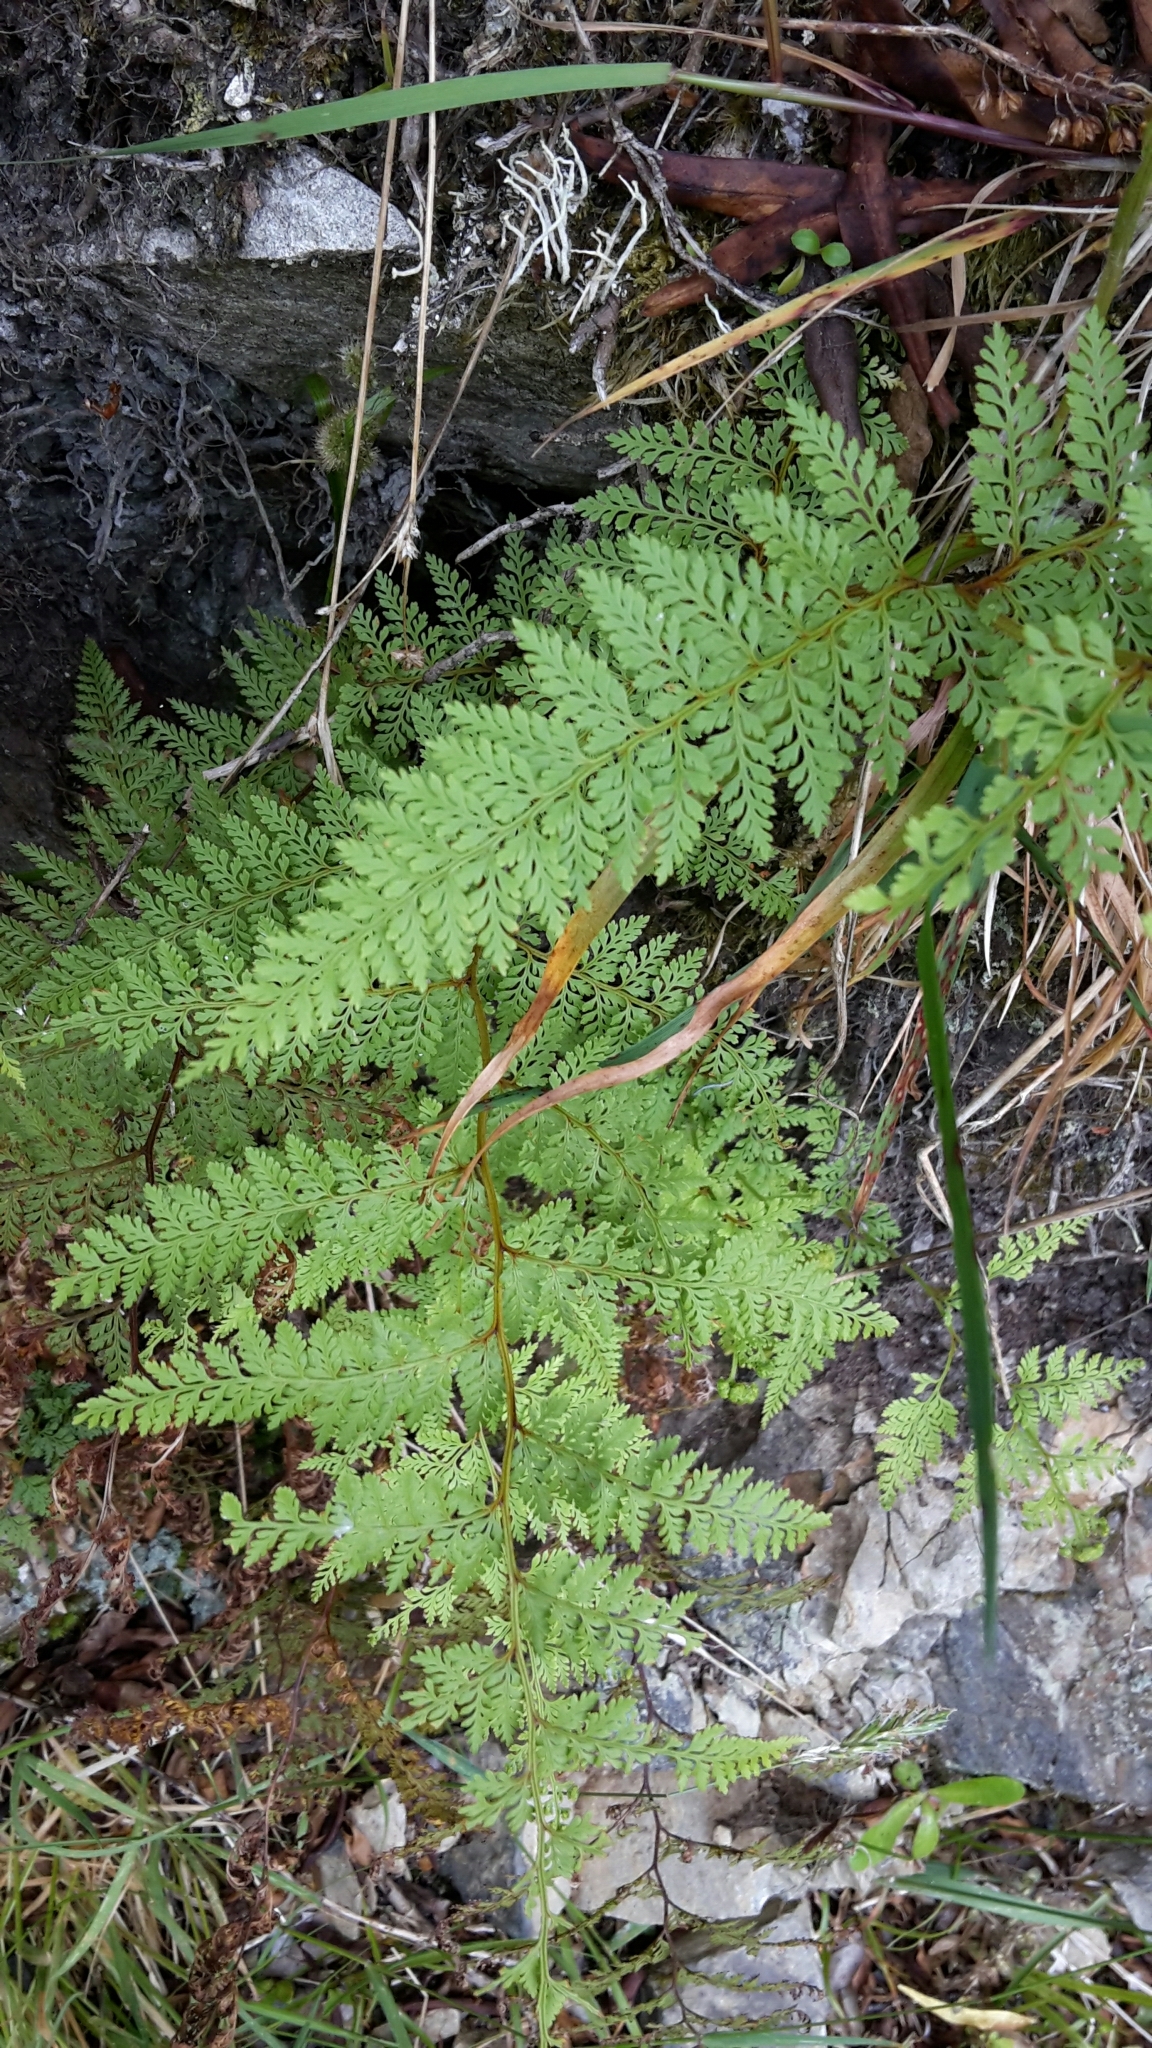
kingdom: Plantae
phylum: Tracheophyta
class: Polypodiopsida
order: Polypodiales
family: Dennstaedtiaceae
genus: Paesia
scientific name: Paesia scaberula
